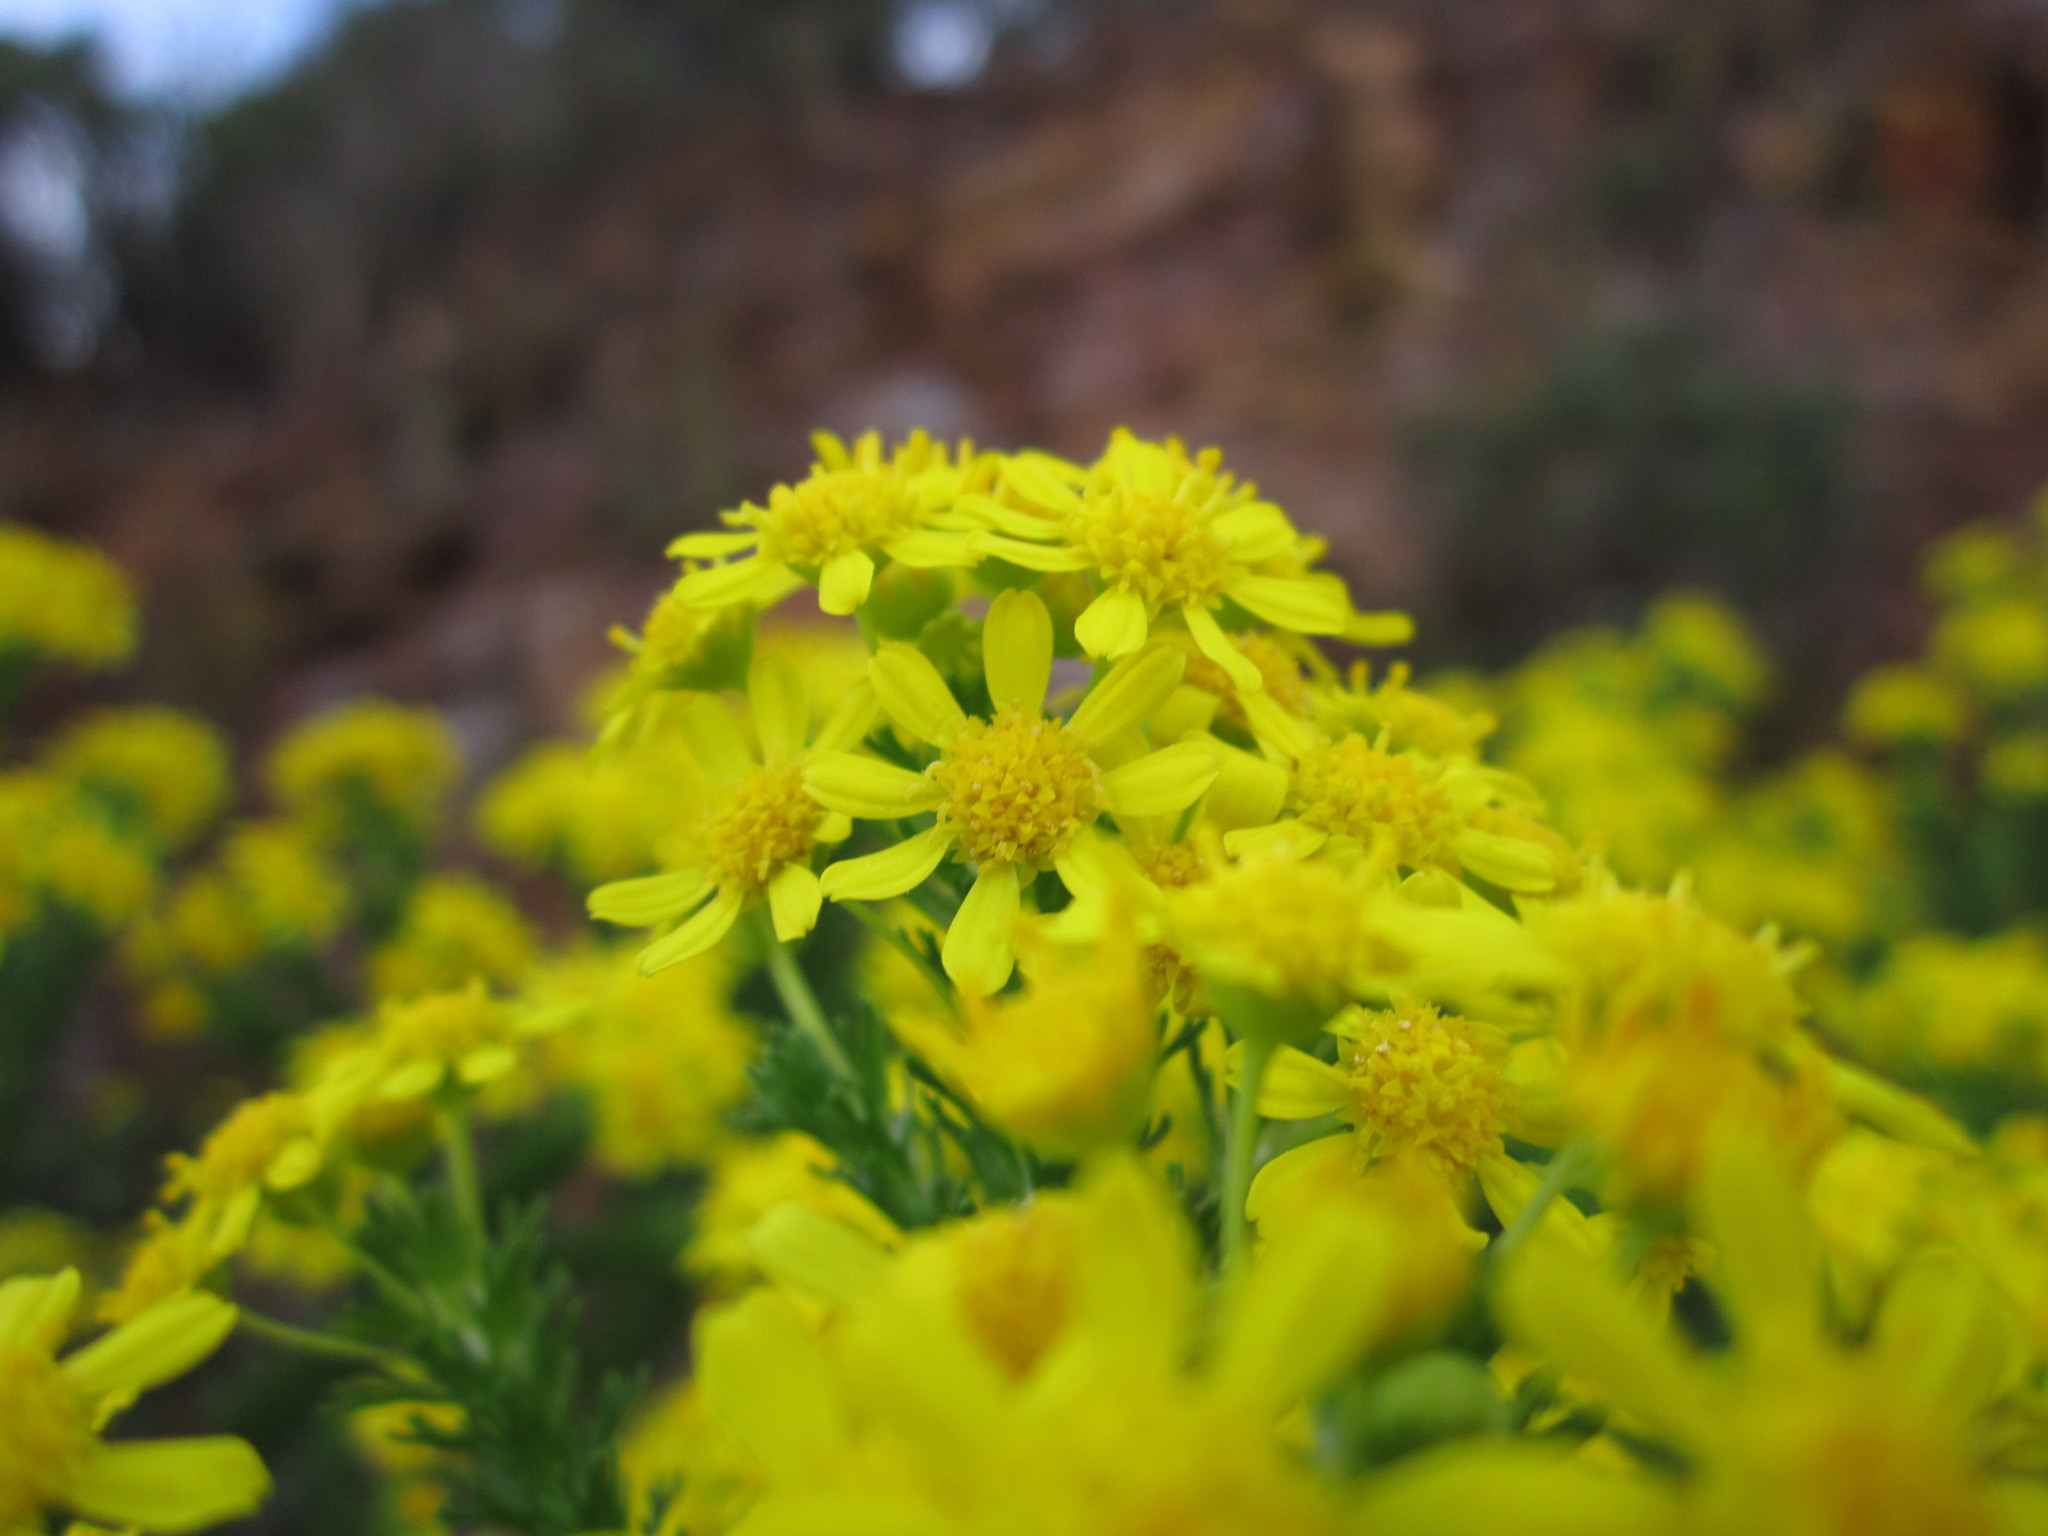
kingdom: Plantae
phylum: Tracheophyta
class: Magnoliopsida
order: Asterales
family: Asteraceae
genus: Euryops
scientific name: Euryops virgineus
